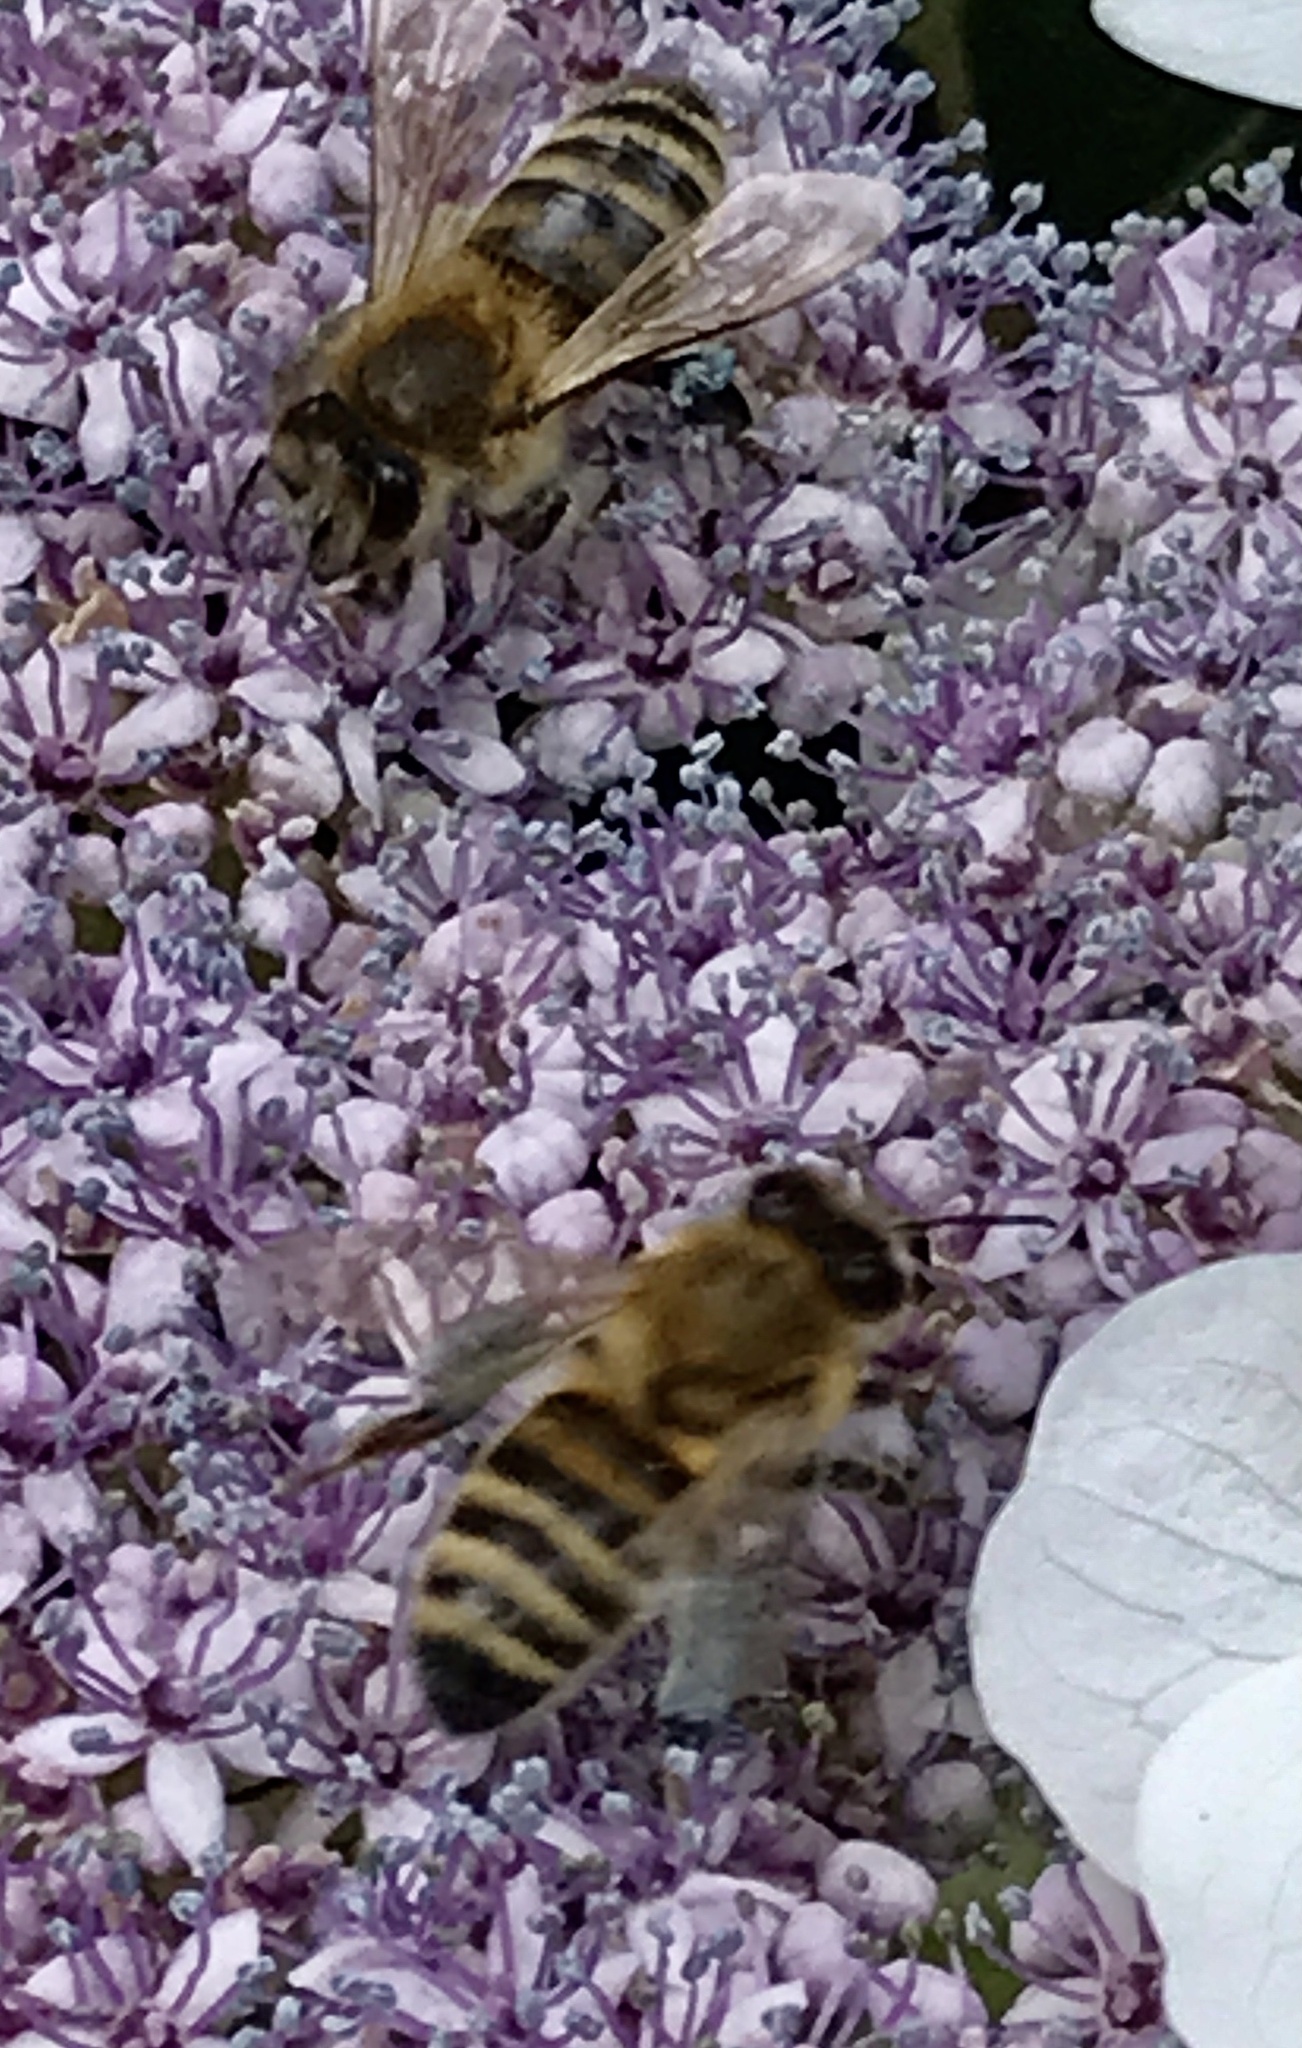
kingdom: Animalia
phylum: Arthropoda
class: Insecta
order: Hymenoptera
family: Apidae
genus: Apis
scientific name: Apis mellifera
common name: Honey bee
